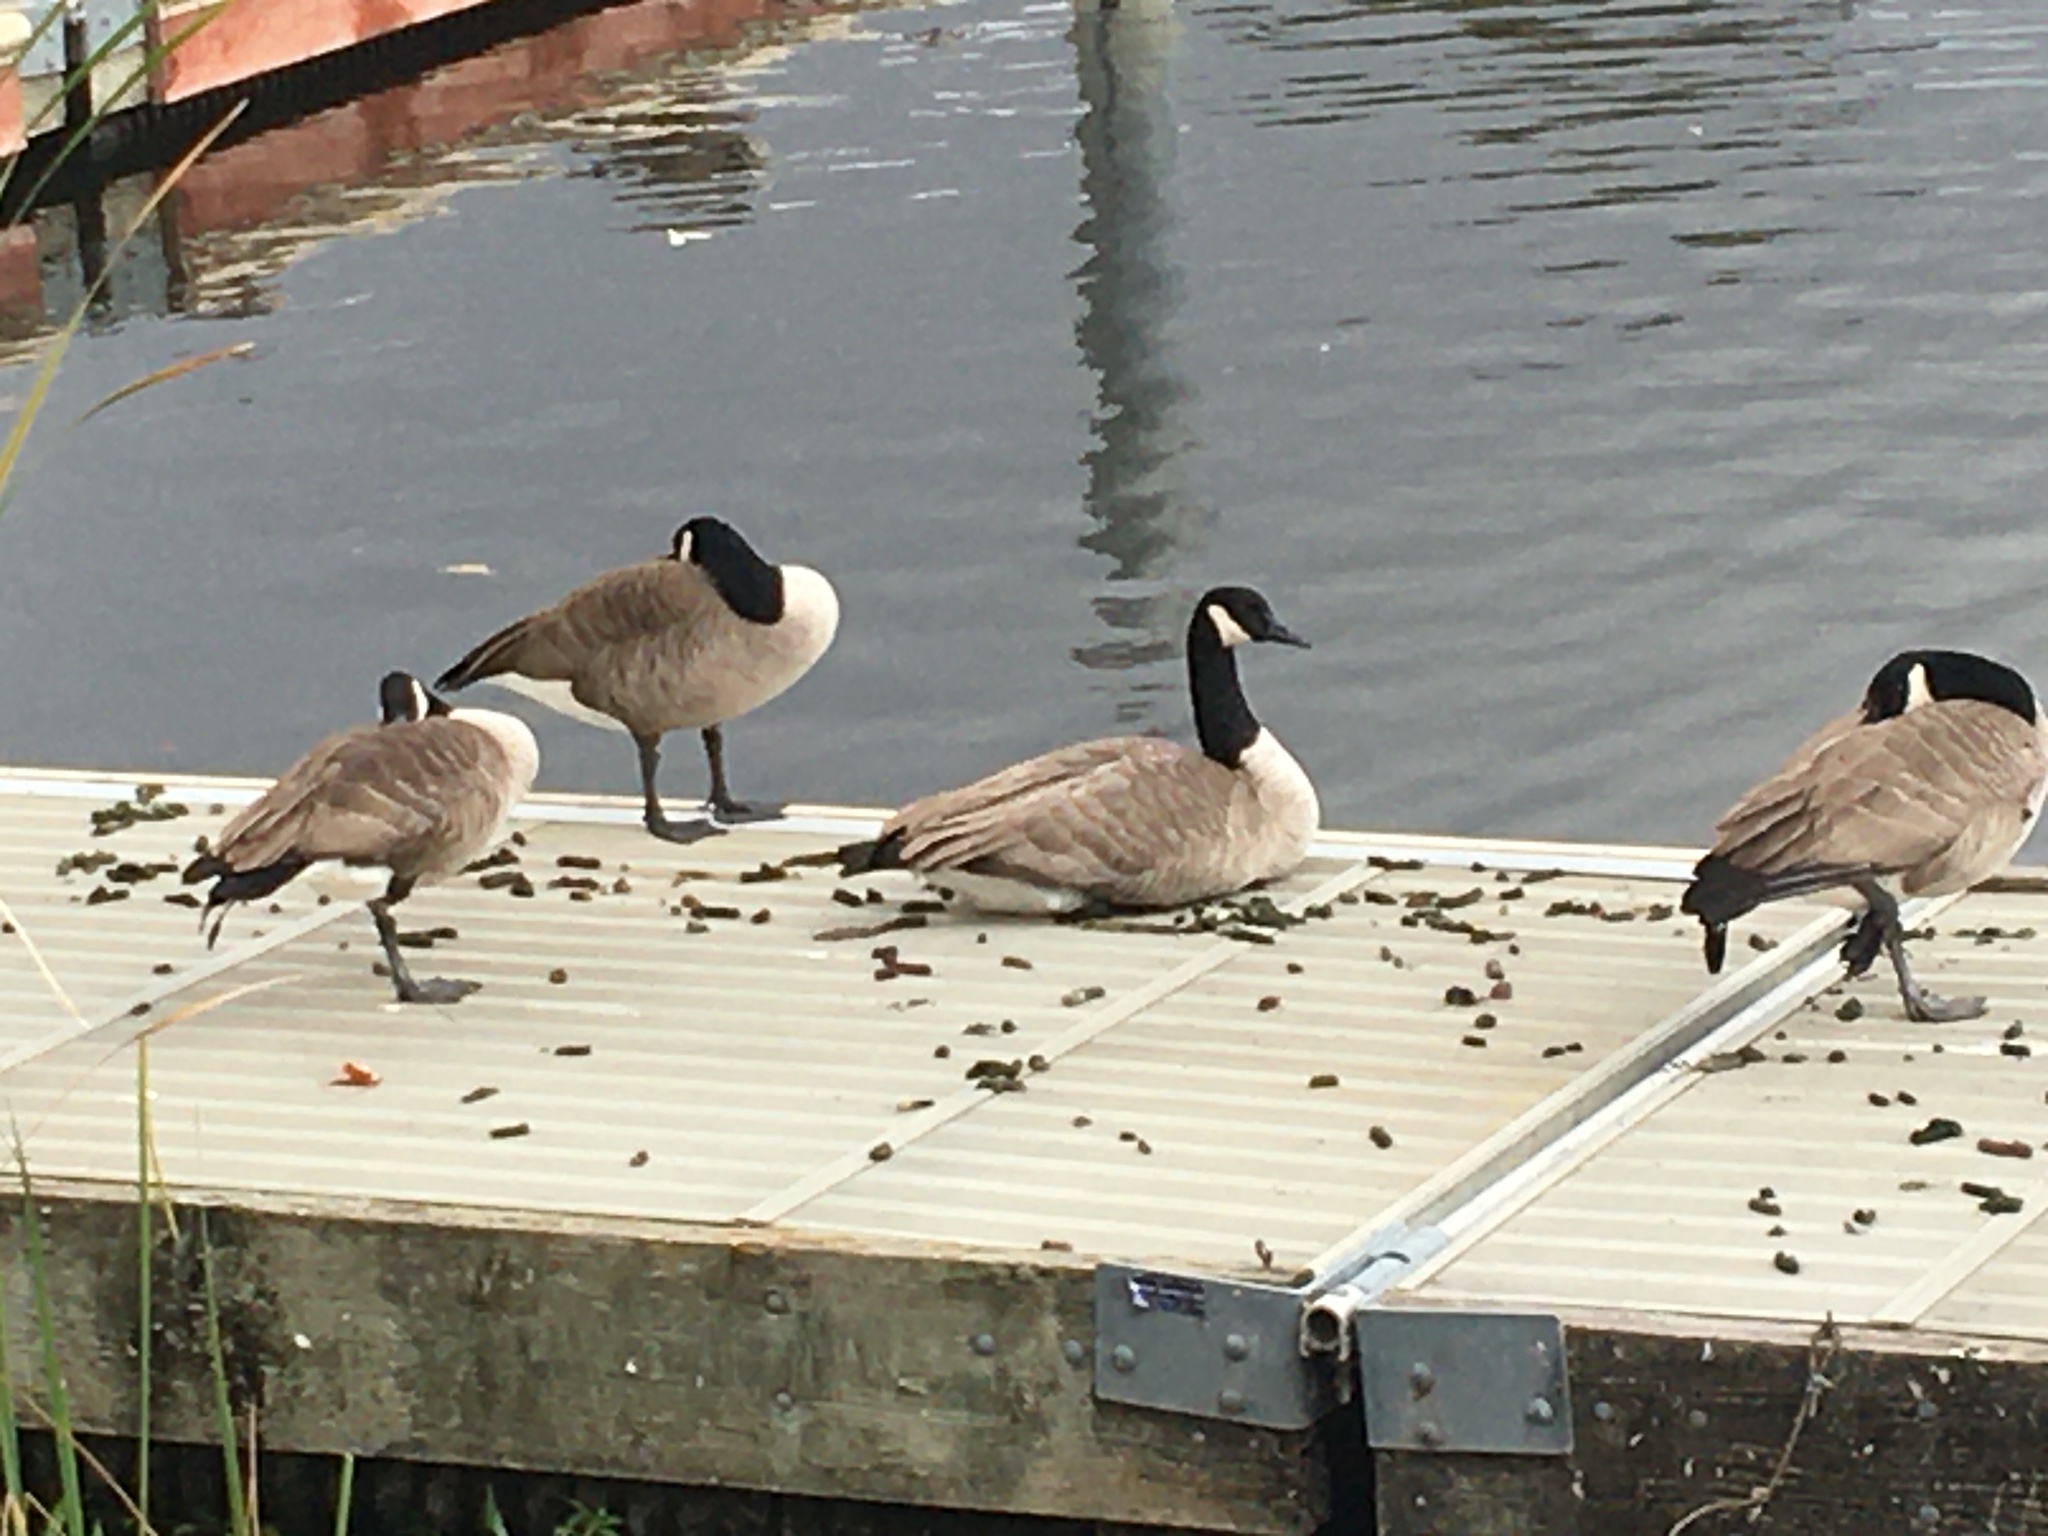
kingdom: Animalia
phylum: Chordata
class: Aves
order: Anseriformes
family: Anatidae
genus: Branta
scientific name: Branta canadensis
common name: Canada goose
